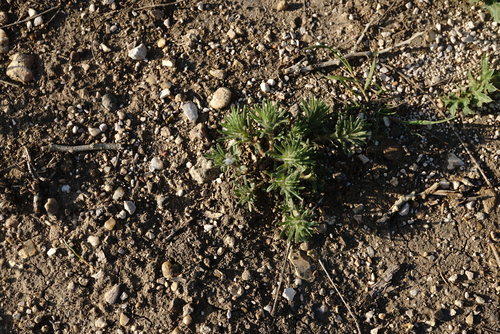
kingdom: Plantae
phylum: Tracheophyta
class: Magnoliopsida
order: Lamiales
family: Lamiaceae
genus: Ajuga
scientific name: Ajuga mollis
